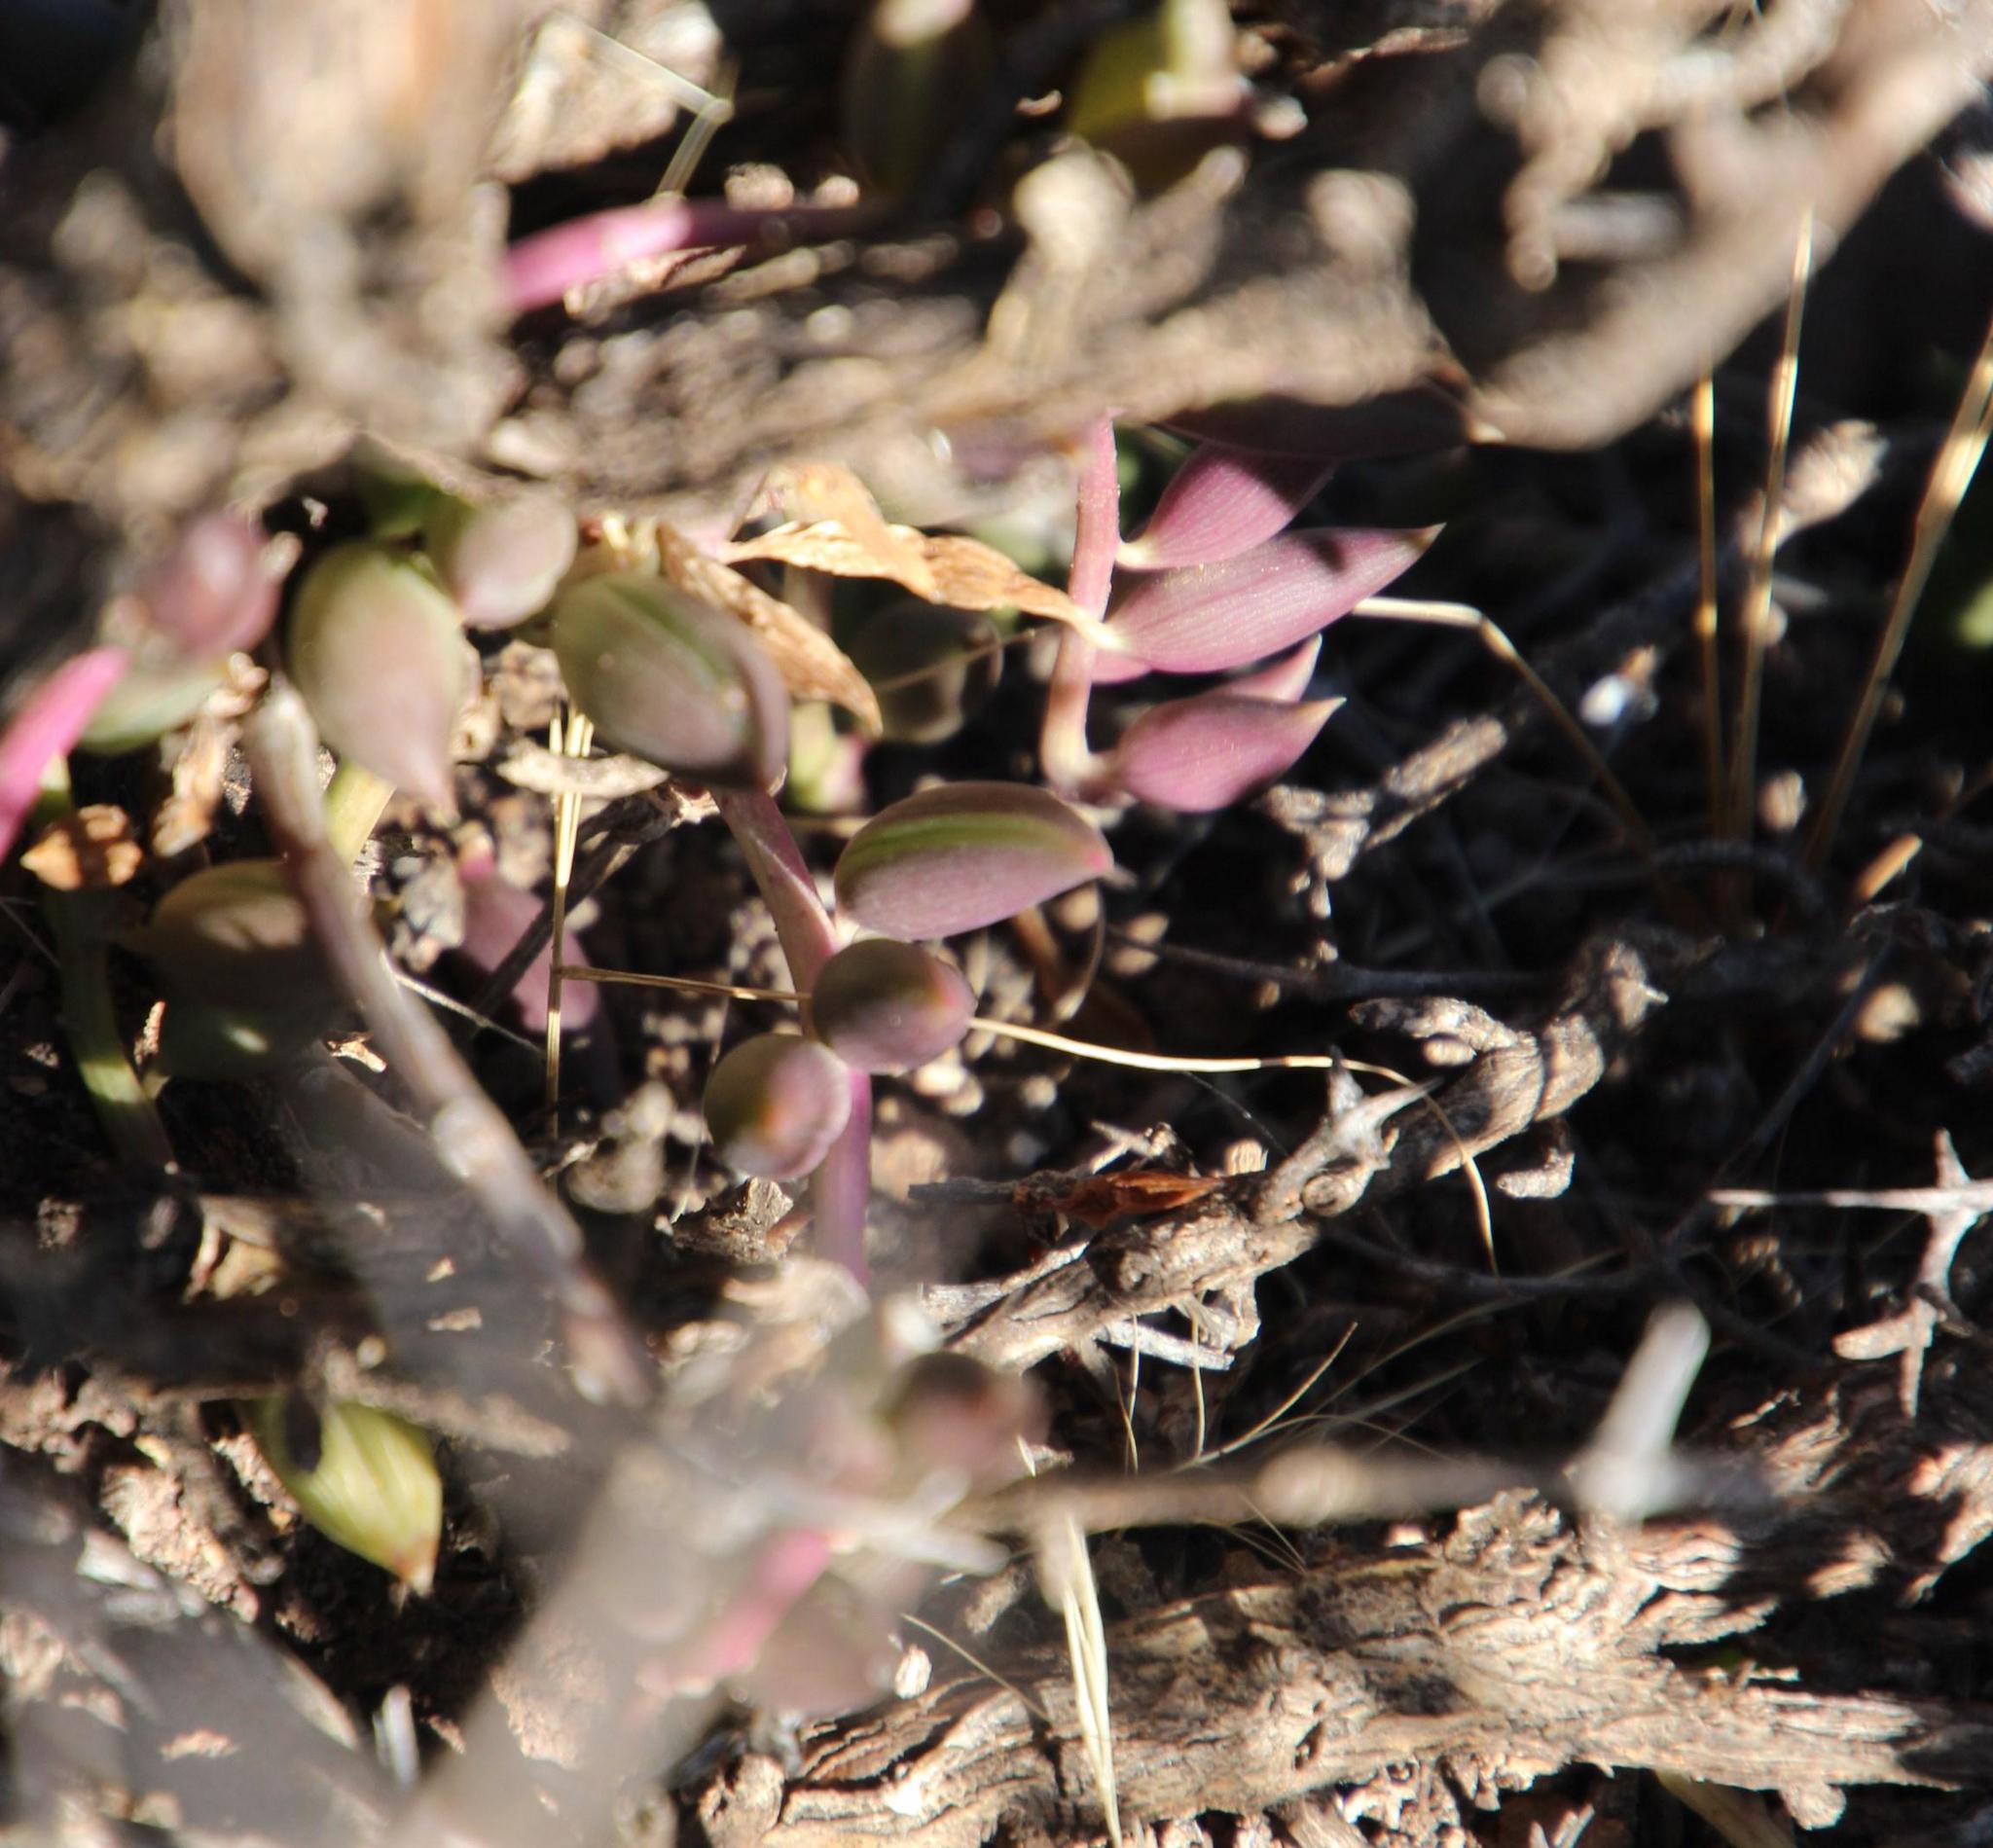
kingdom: Plantae
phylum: Tracheophyta
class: Magnoliopsida
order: Asterales
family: Asteraceae
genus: Curio
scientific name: Curio radicans
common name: Creeping-berry
